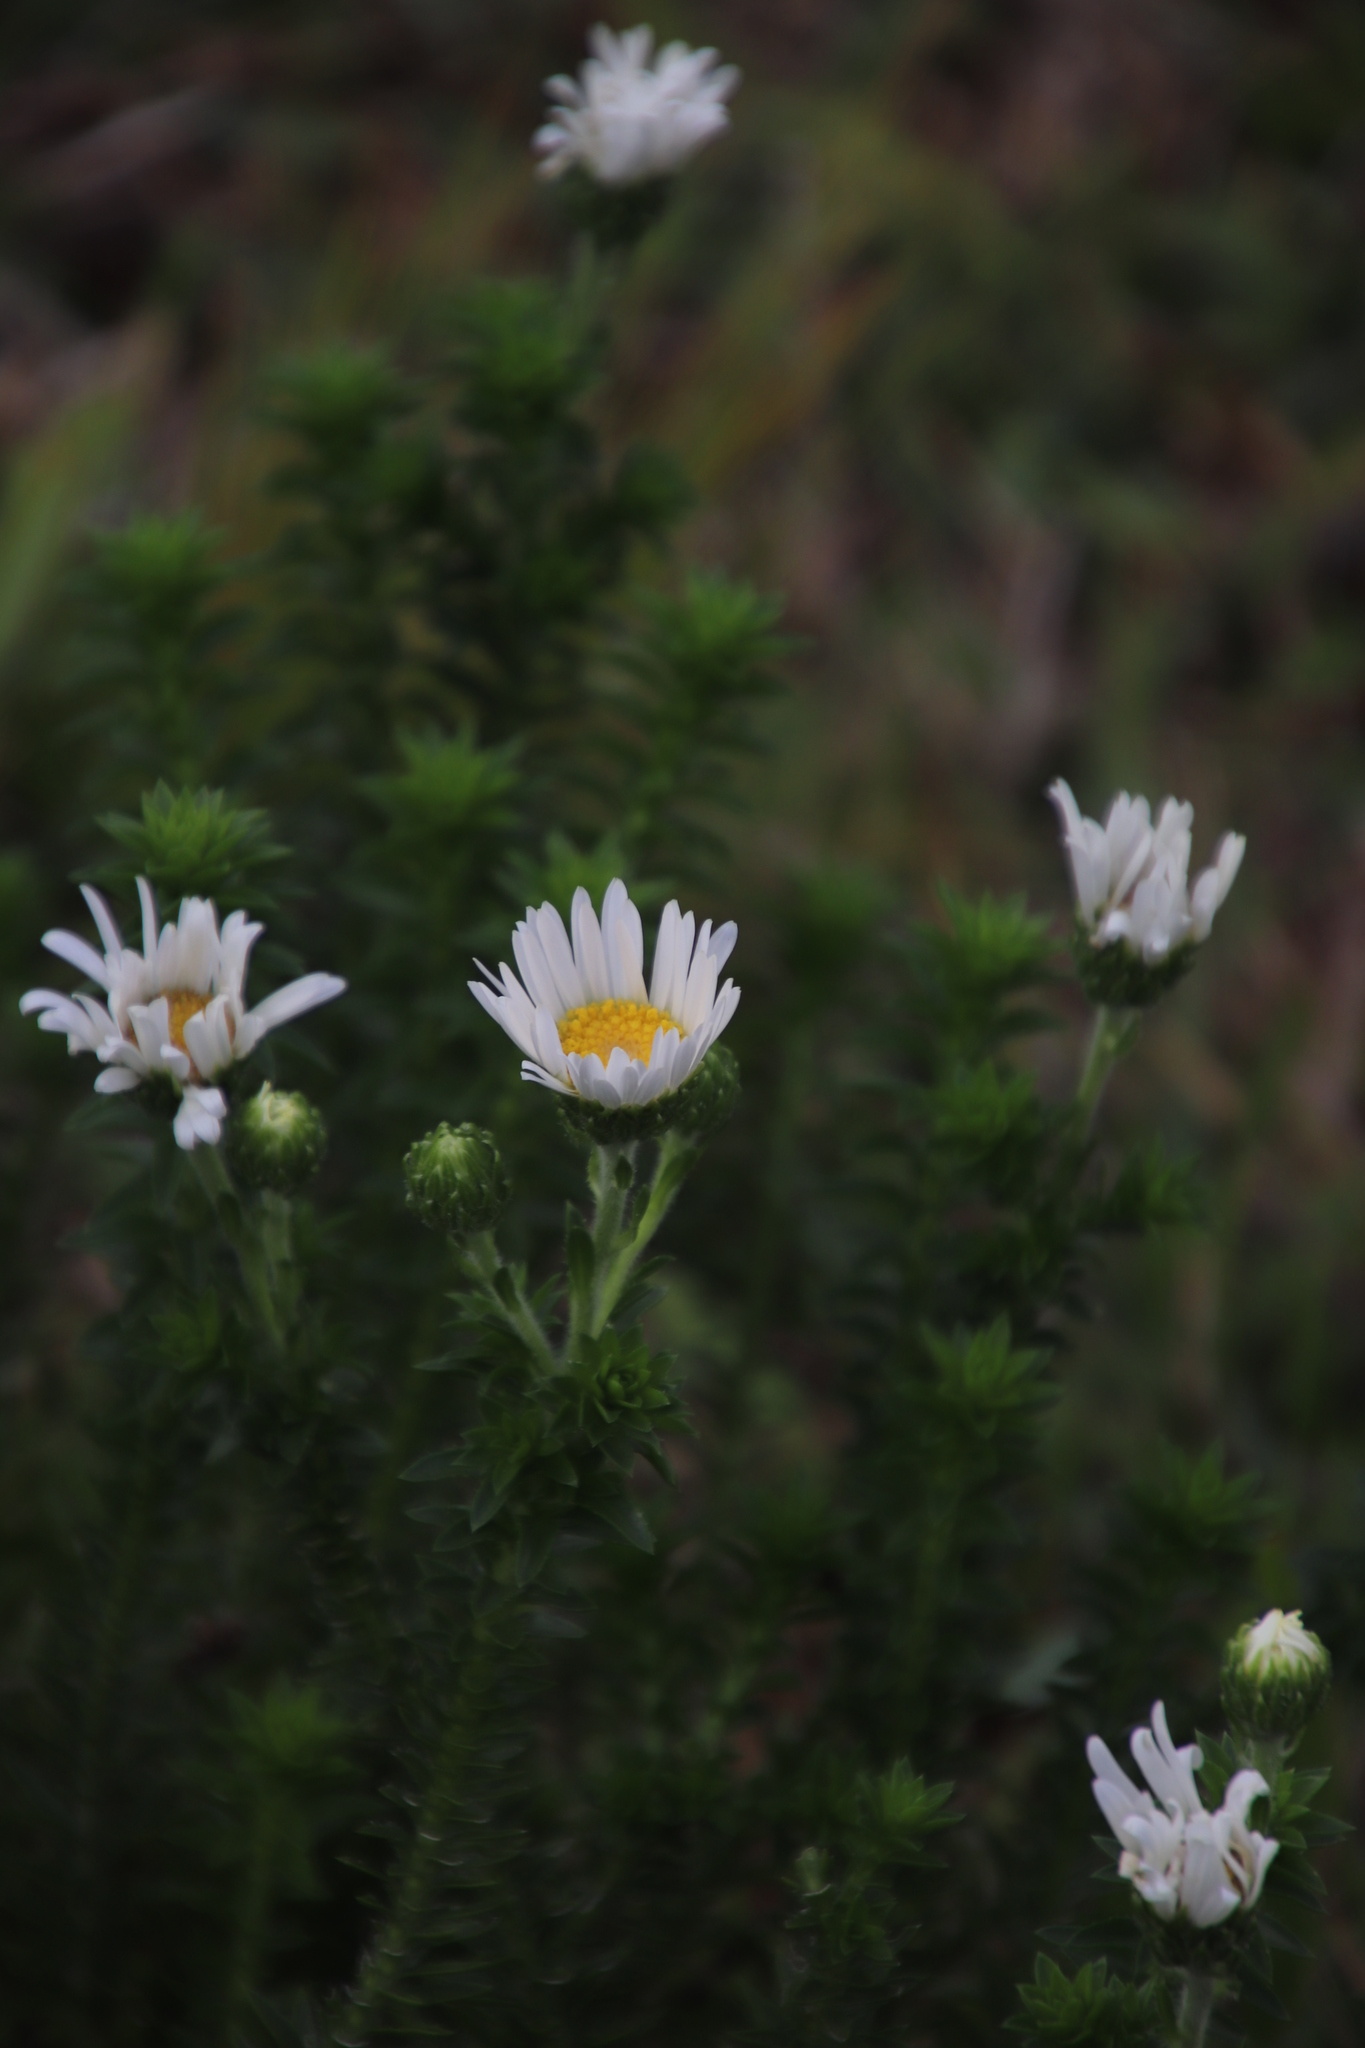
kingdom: Plantae
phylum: Tracheophyta
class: Magnoliopsida
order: Asterales
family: Asteraceae
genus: Felicia
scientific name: Felicia echinata
